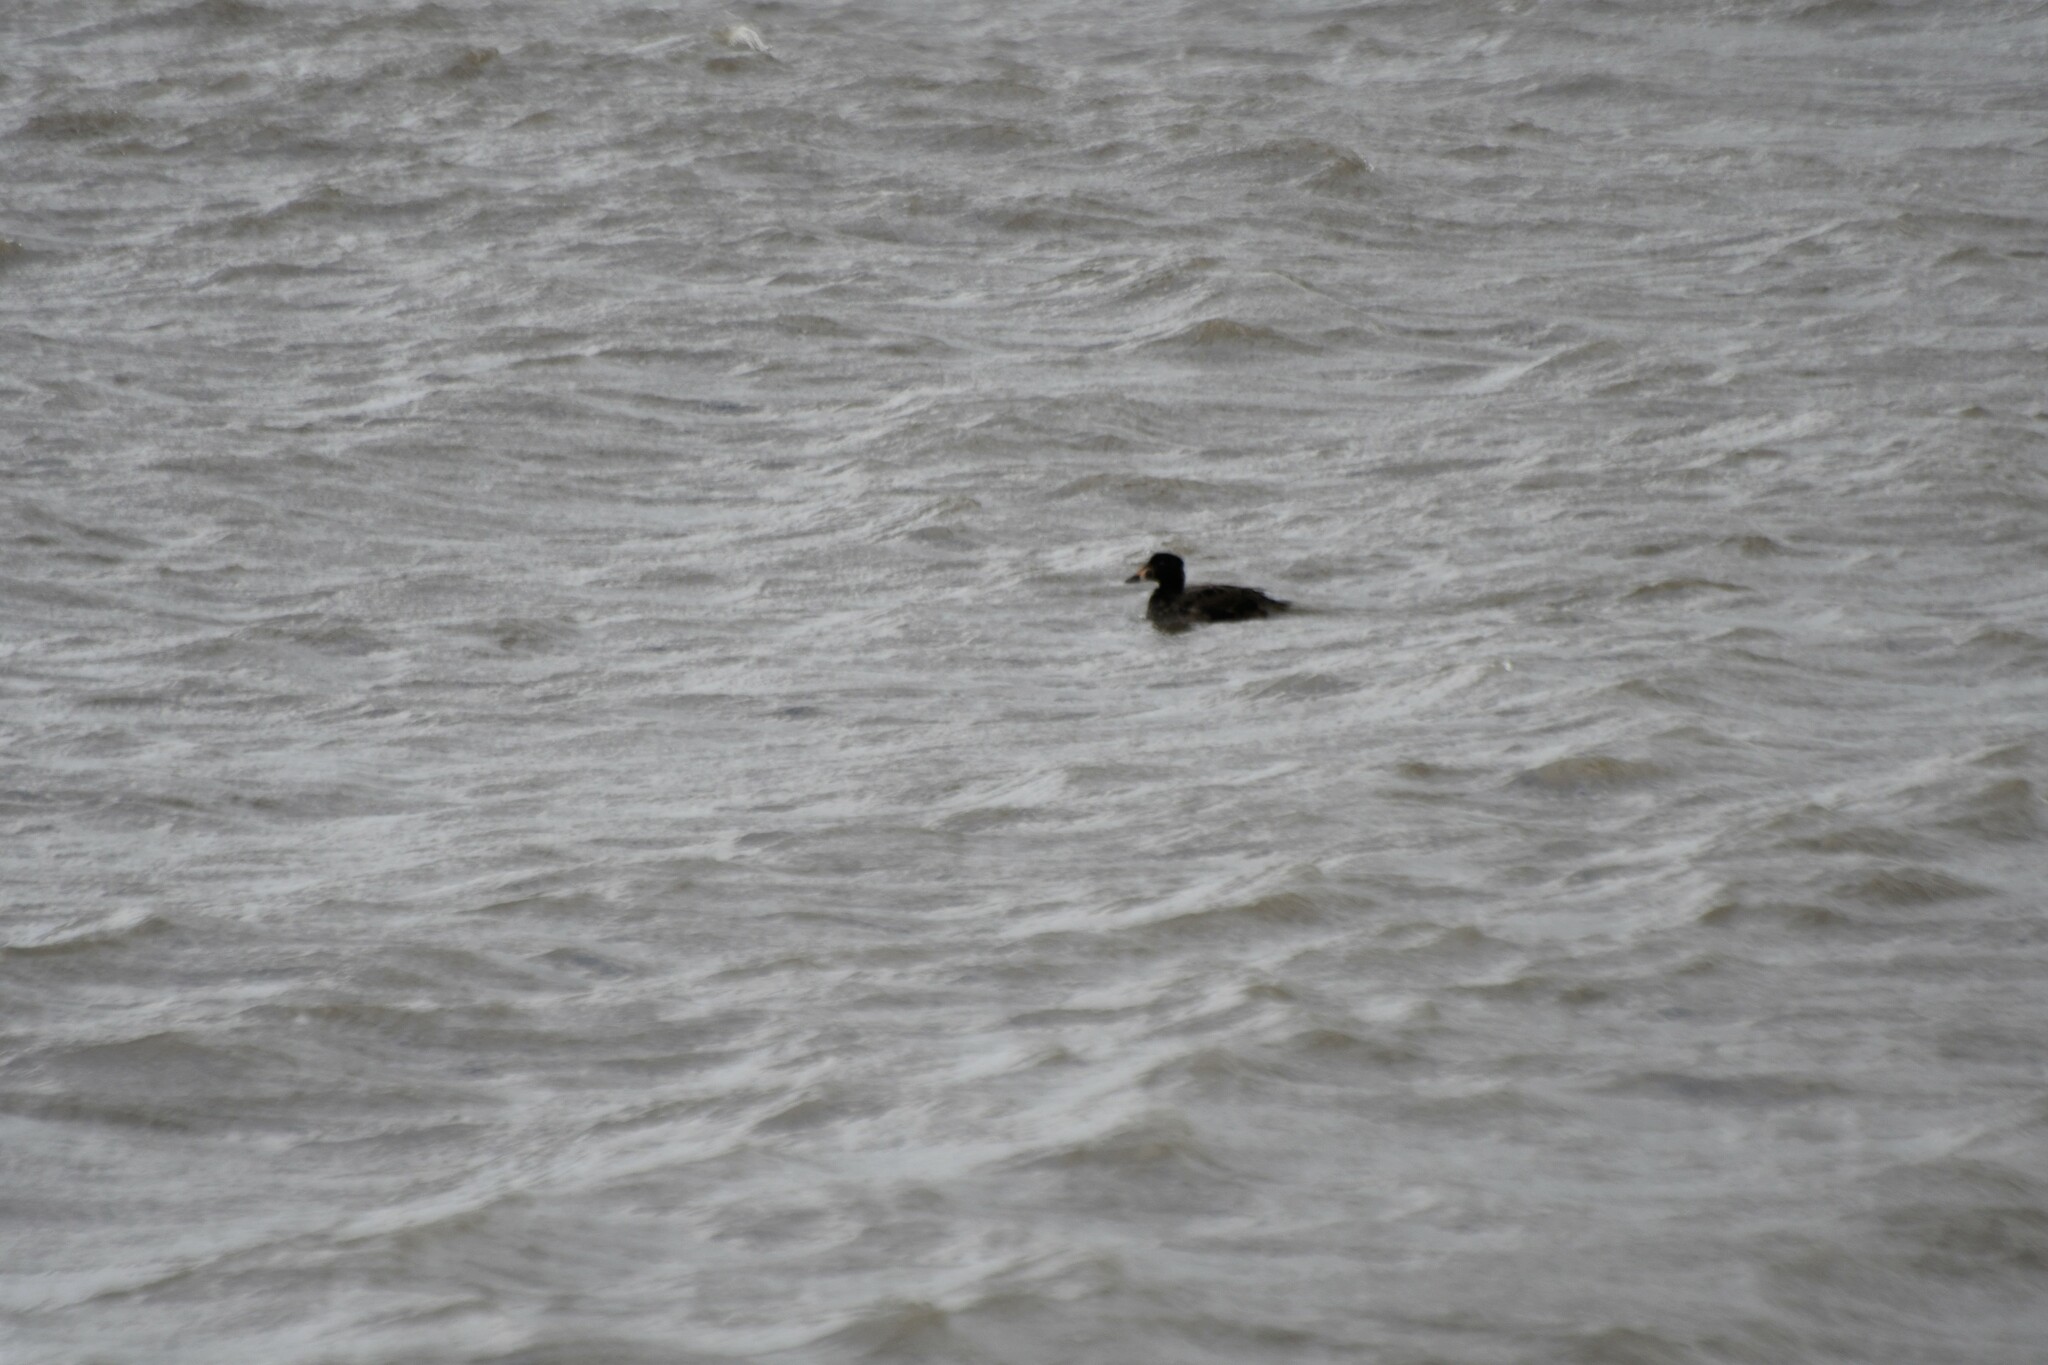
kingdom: Animalia
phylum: Chordata
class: Aves
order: Anseriformes
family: Anatidae
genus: Melanitta
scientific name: Melanitta perspicillata
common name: Surf scoter
